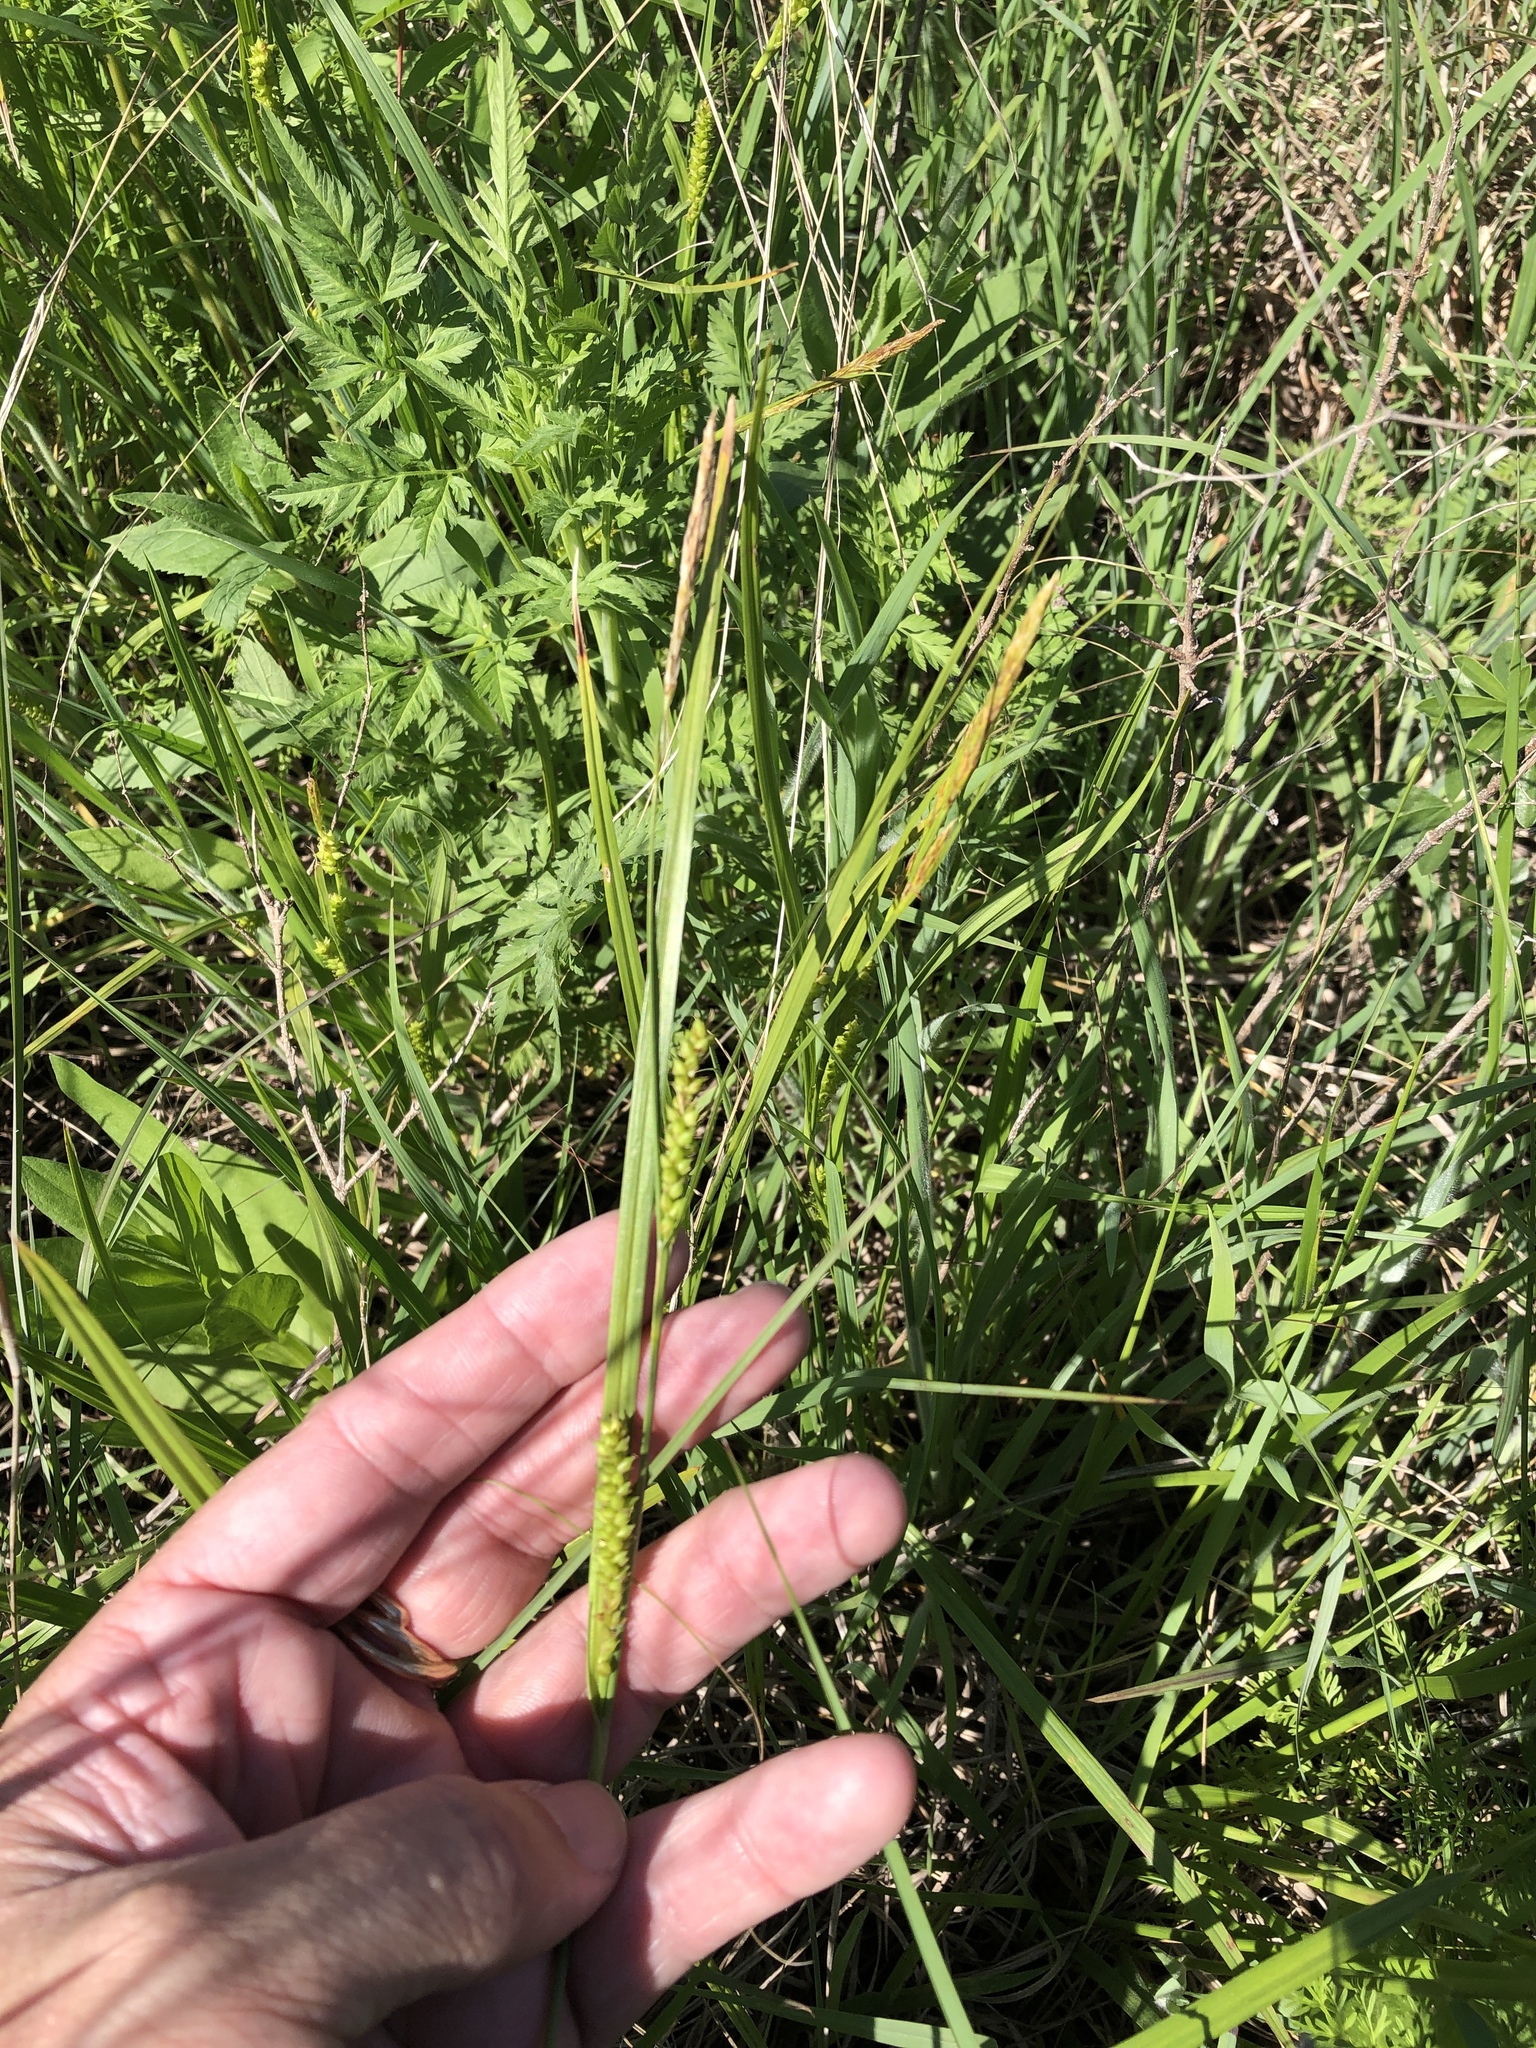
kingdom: Plantae
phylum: Tracheophyta
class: Liliopsida
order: Poales
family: Cyperaceae
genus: Carex
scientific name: Carex microdonta
